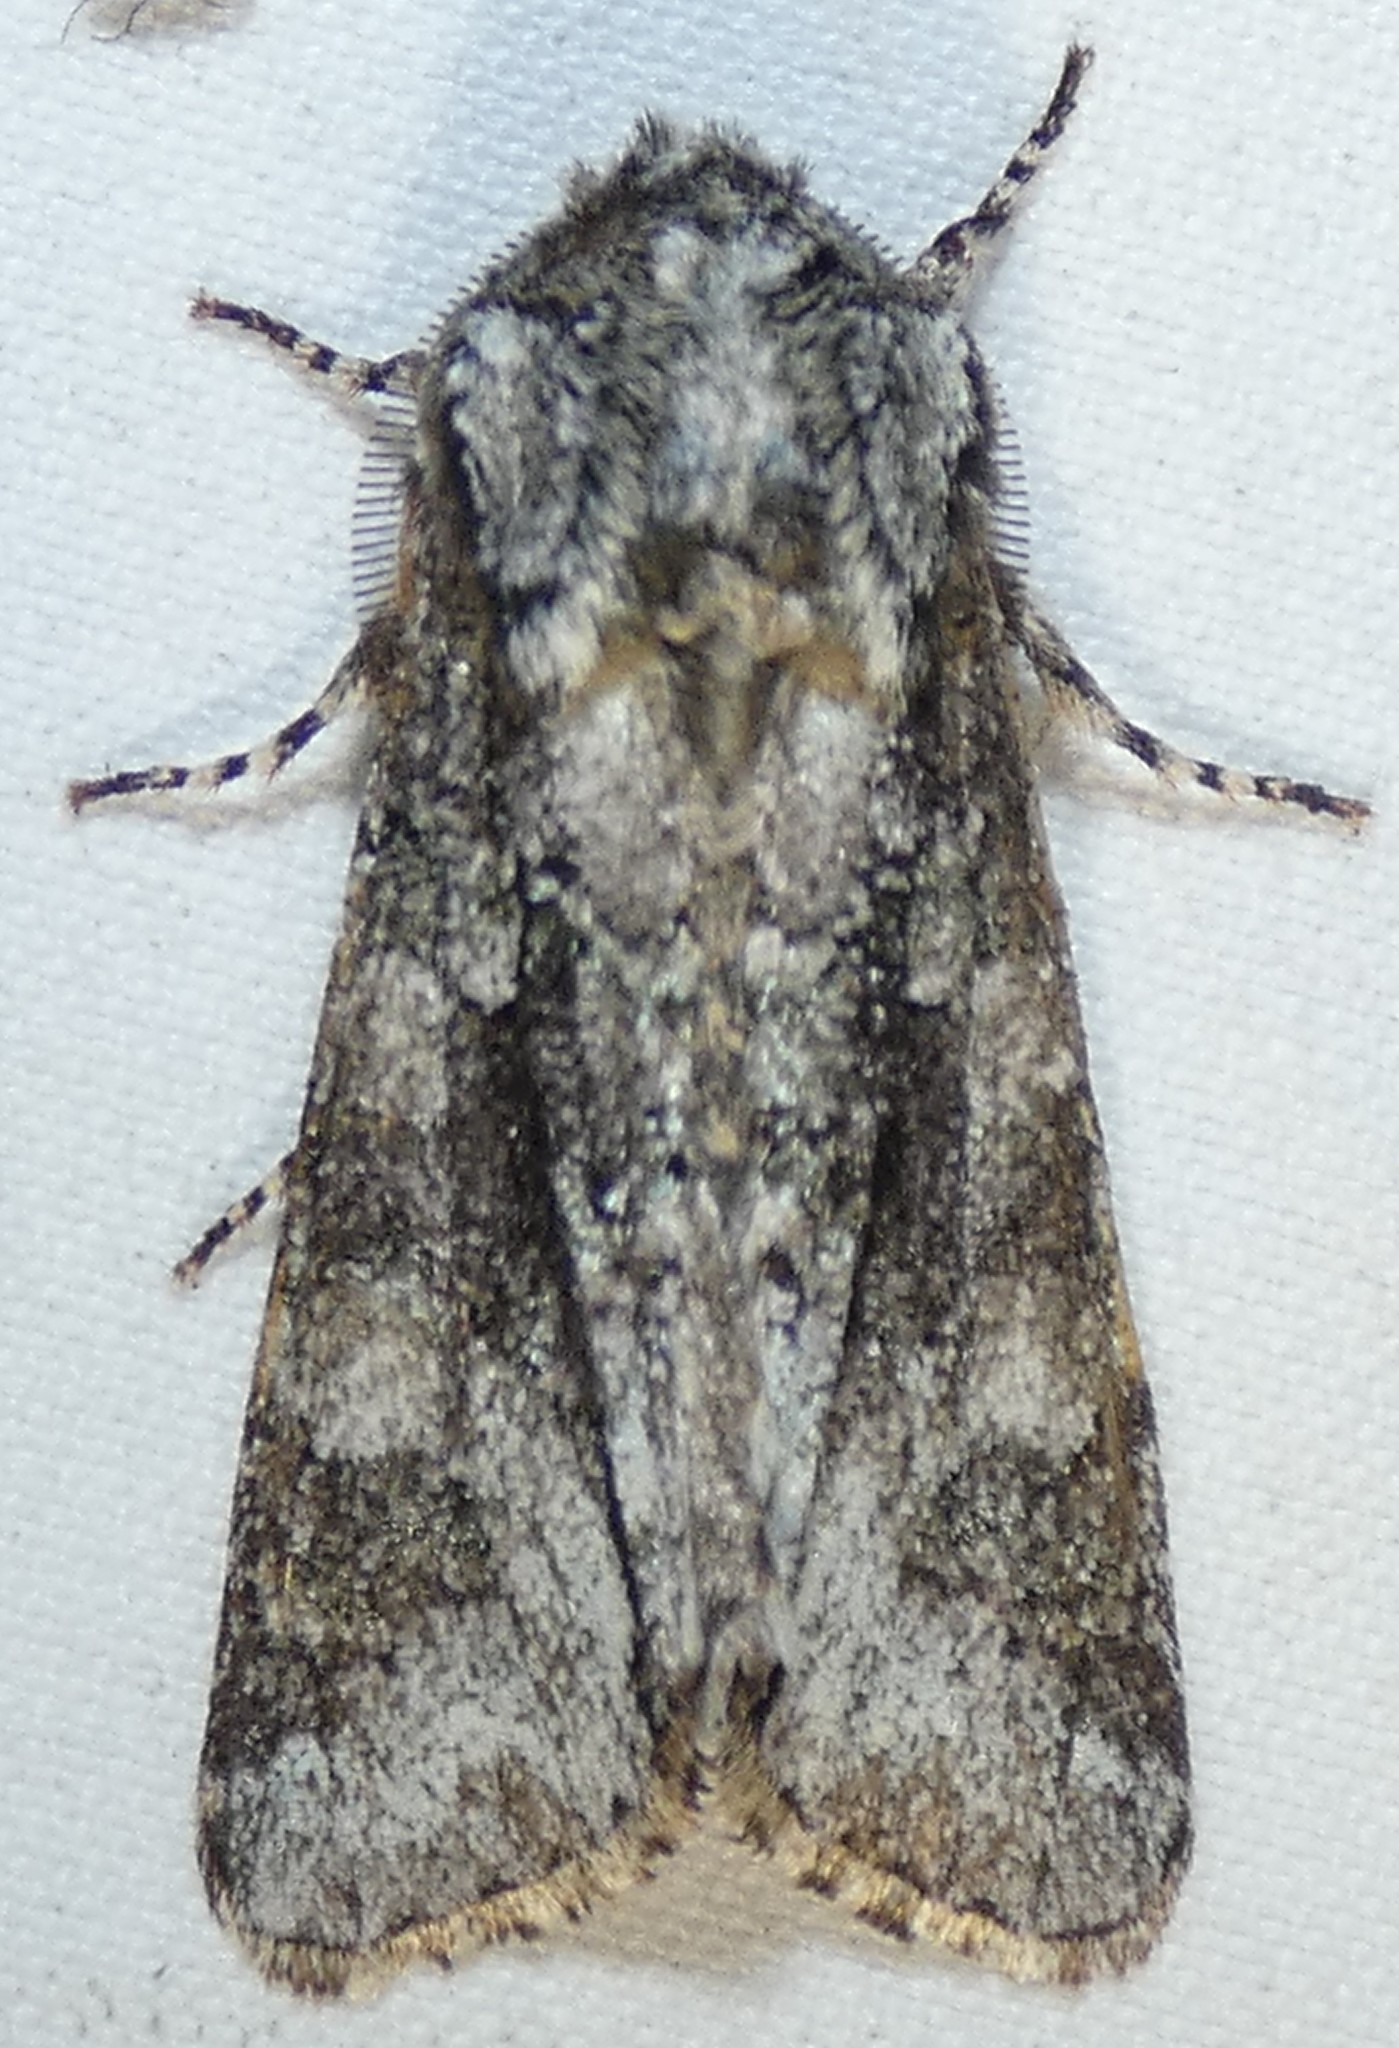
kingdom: Animalia
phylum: Arthropoda
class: Insecta
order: Lepidoptera
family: Noctuidae
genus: Psaphida
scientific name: Psaphida resumens
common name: Figure-eight sallow
